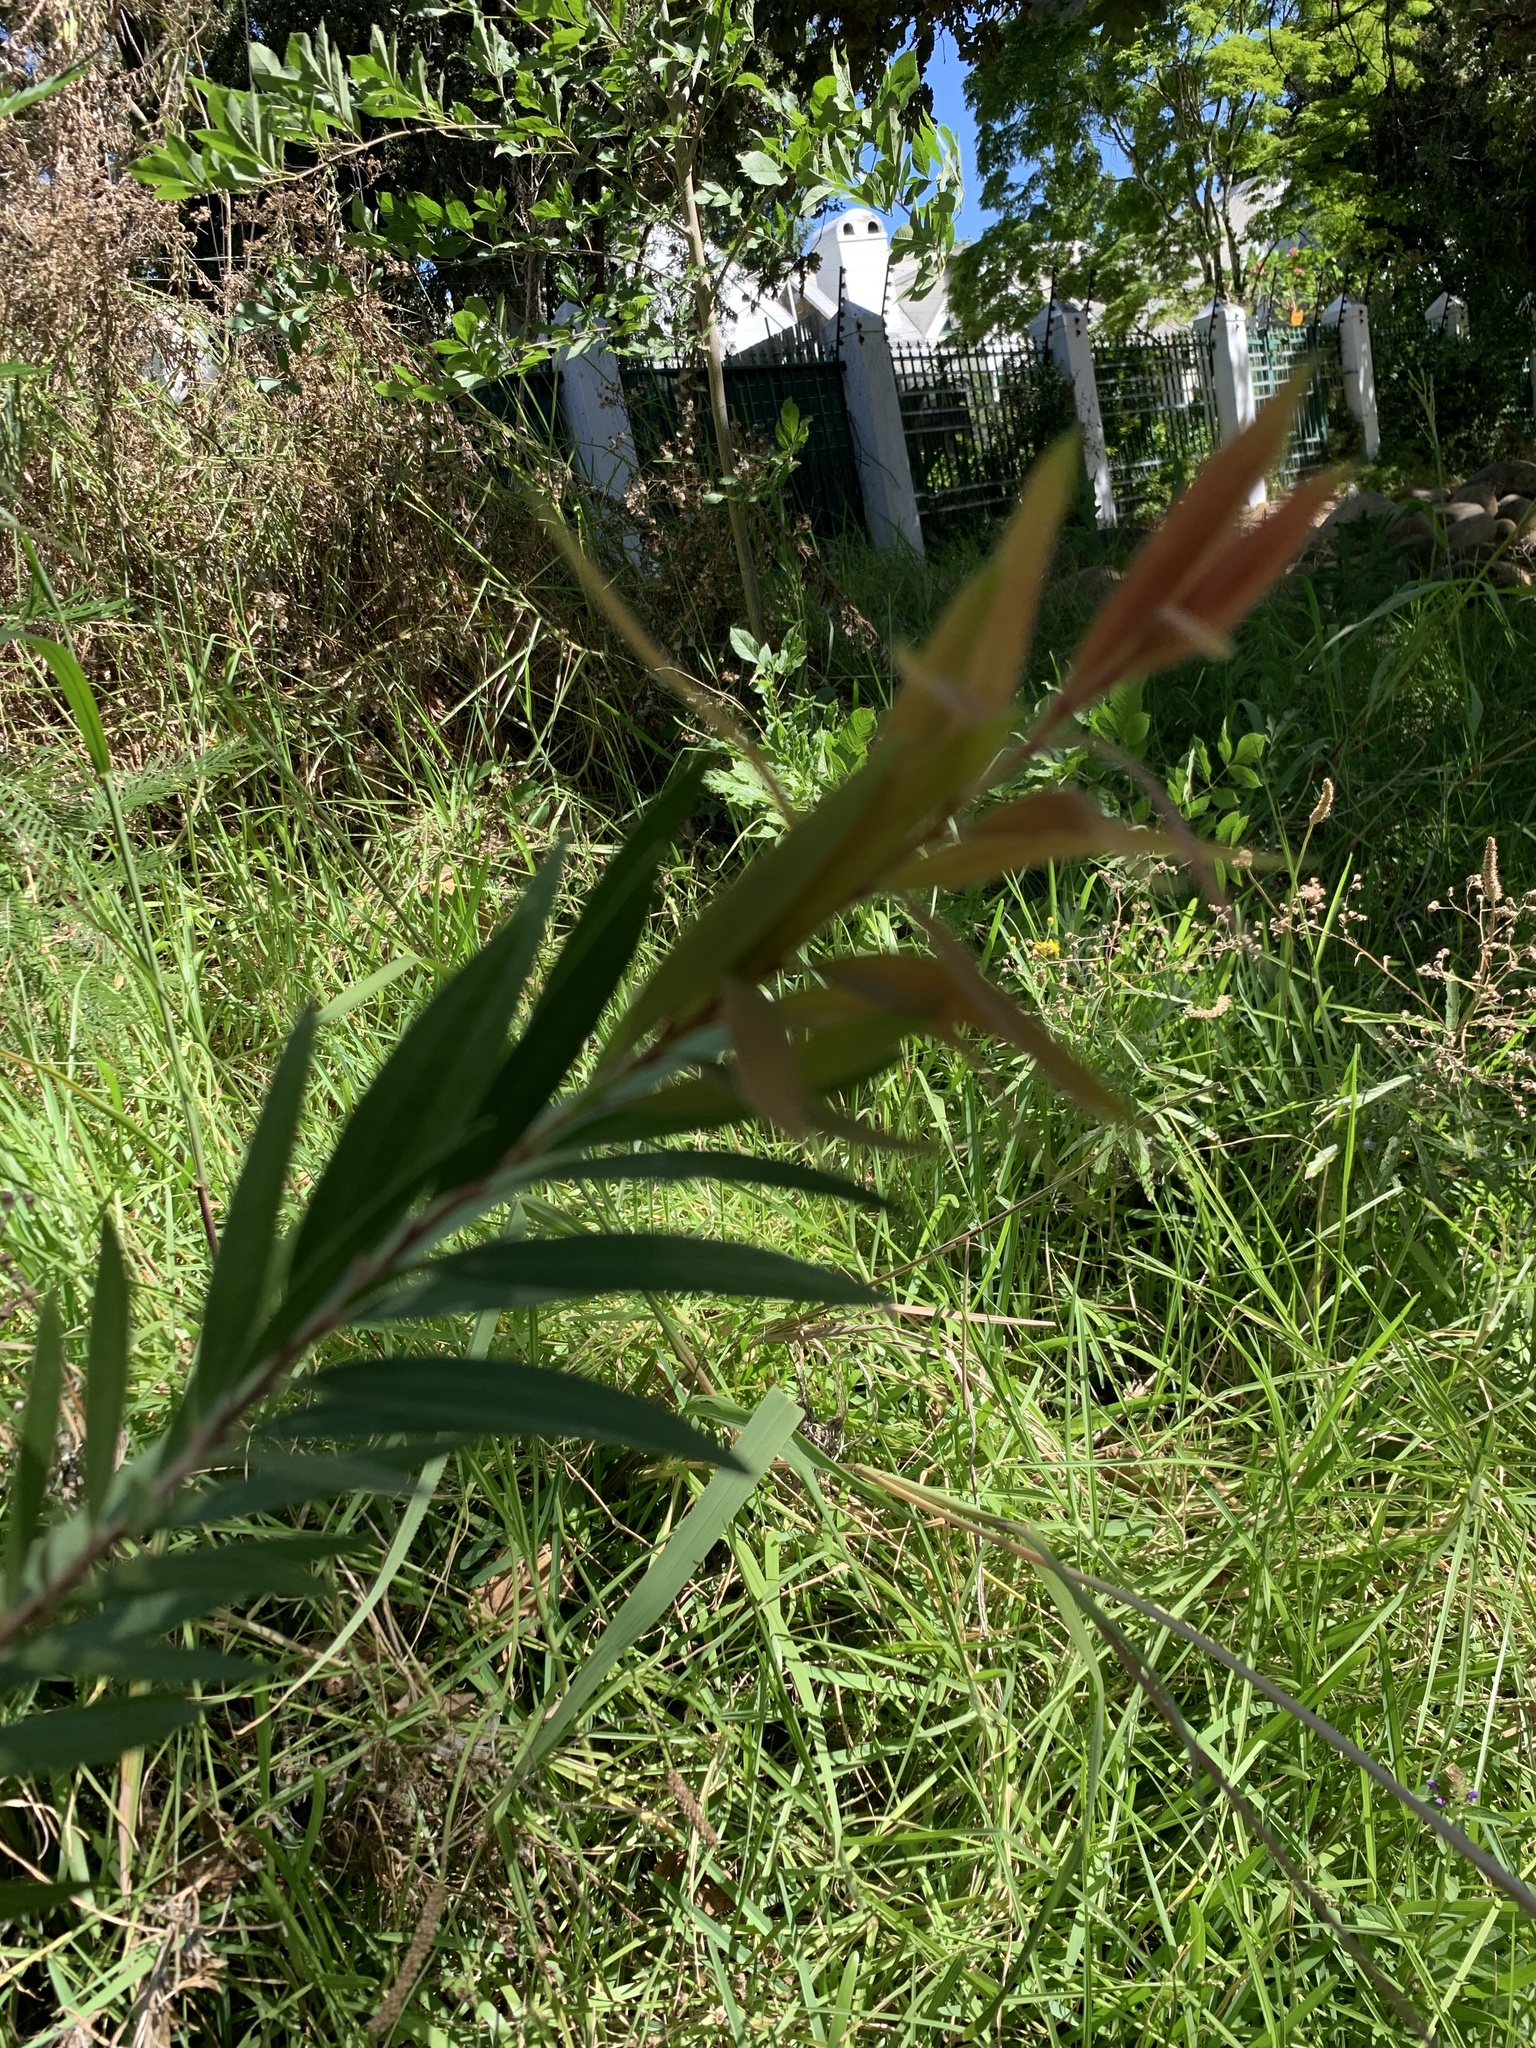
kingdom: Plantae
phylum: Tracheophyta
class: Magnoliopsida
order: Myrtales
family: Myrtaceae
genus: Callistemon
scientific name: Callistemon viminalis
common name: Drooping bottlebrush
